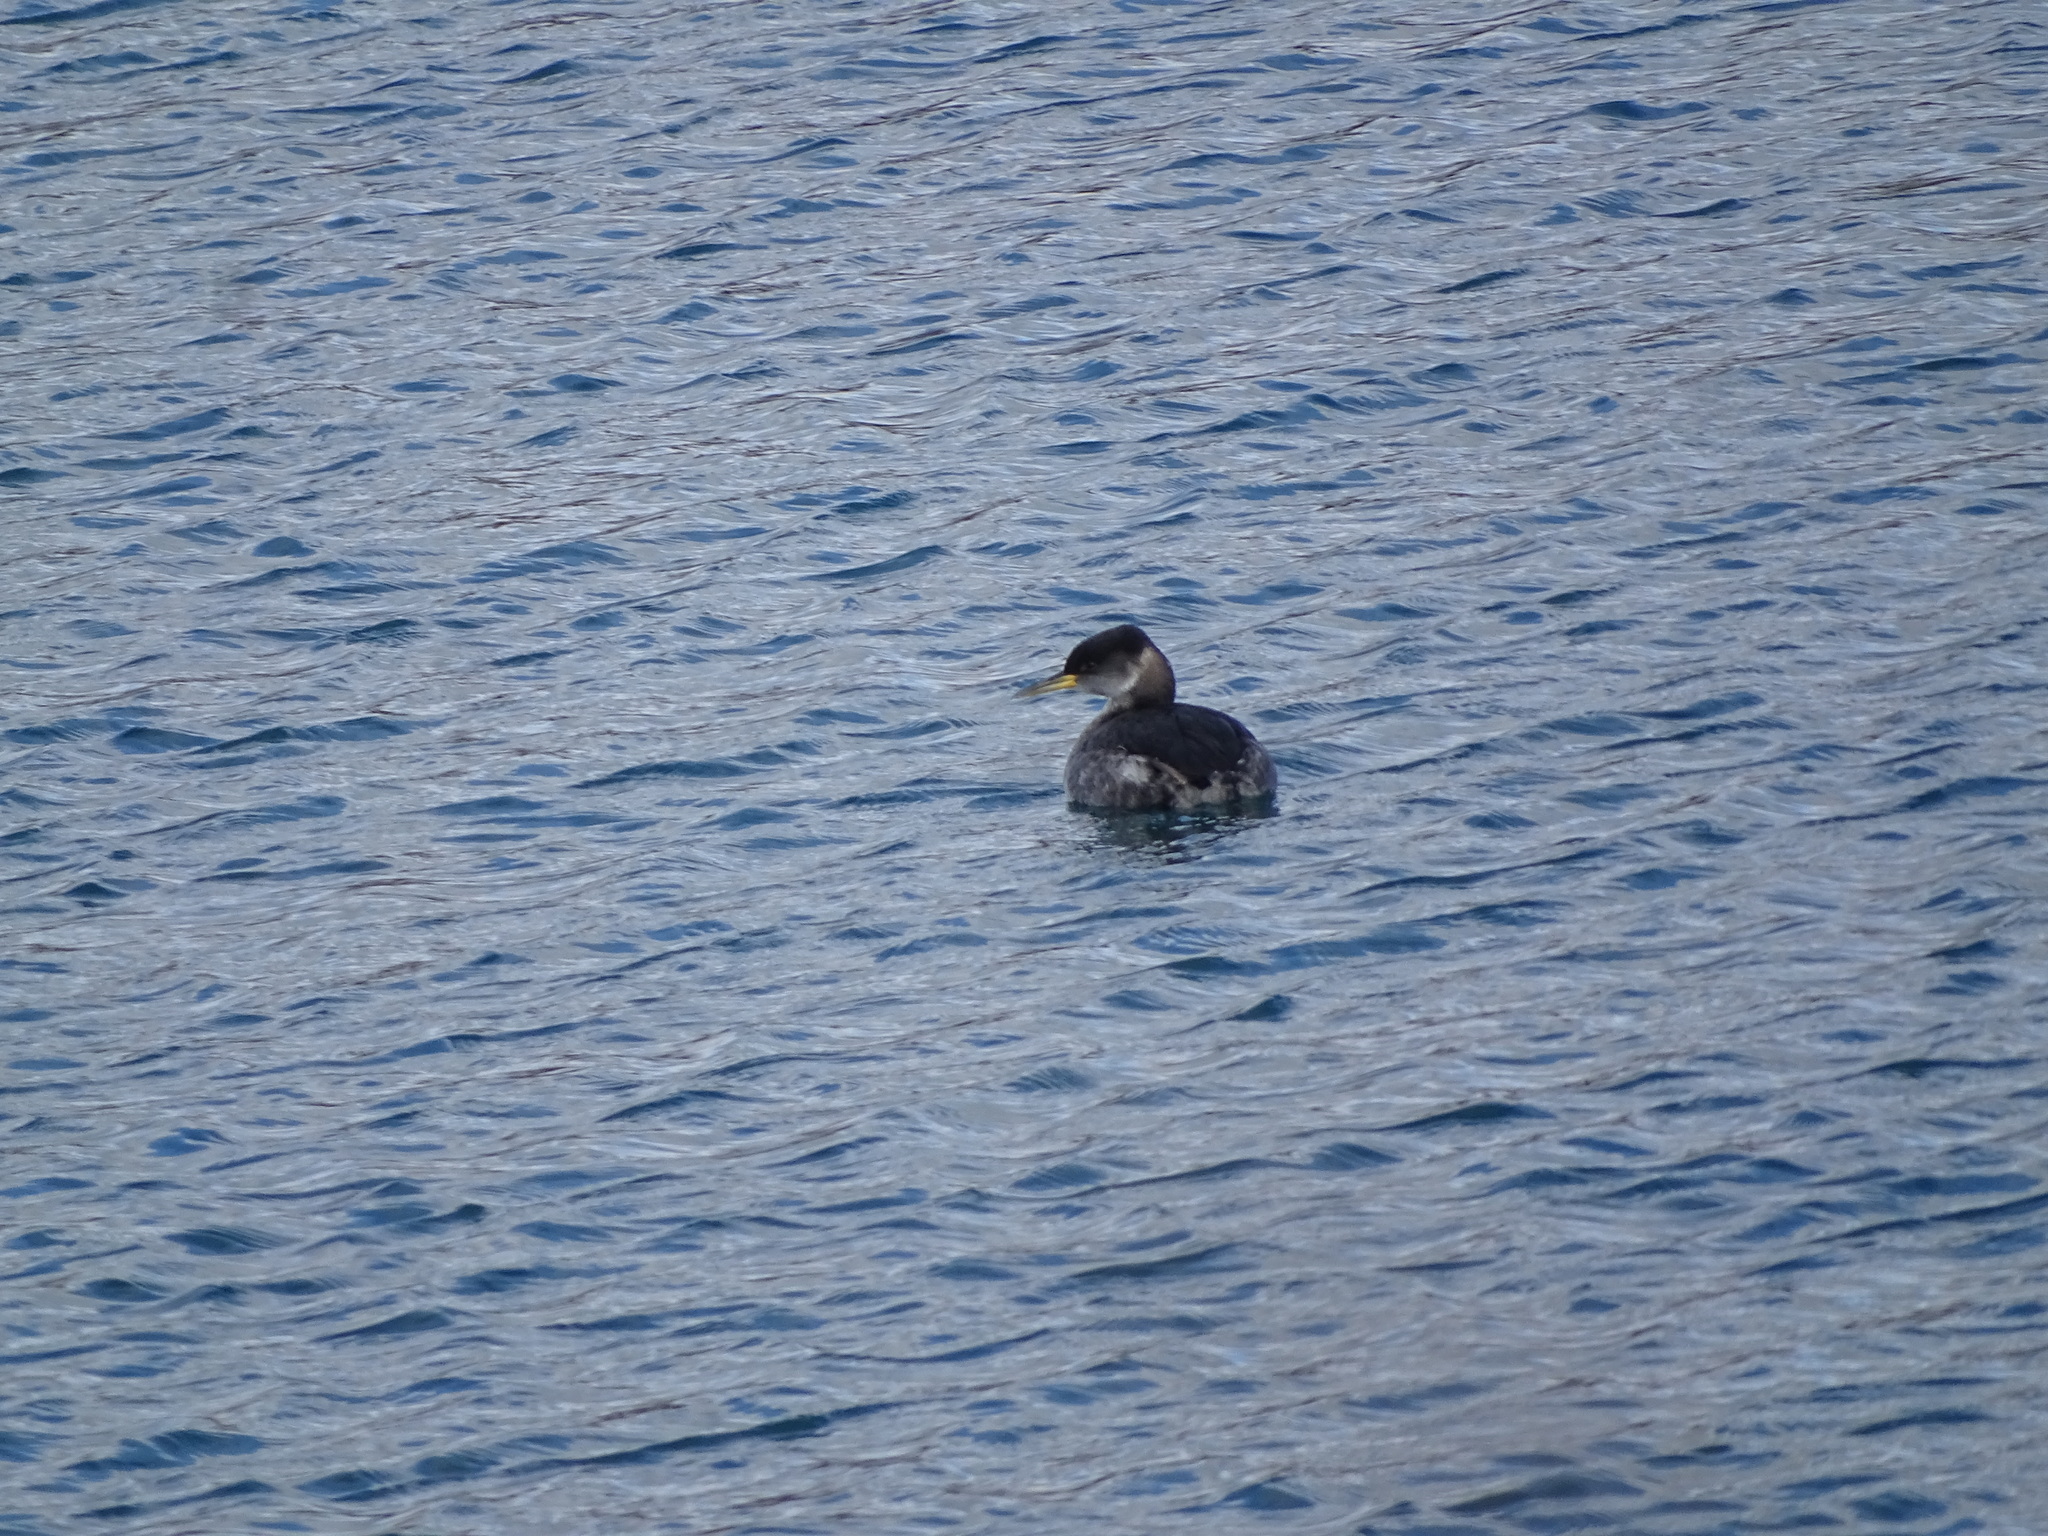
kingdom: Animalia
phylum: Chordata
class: Aves
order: Podicipediformes
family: Podicipedidae
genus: Podiceps
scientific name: Podiceps grisegena
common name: Red-necked grebe
